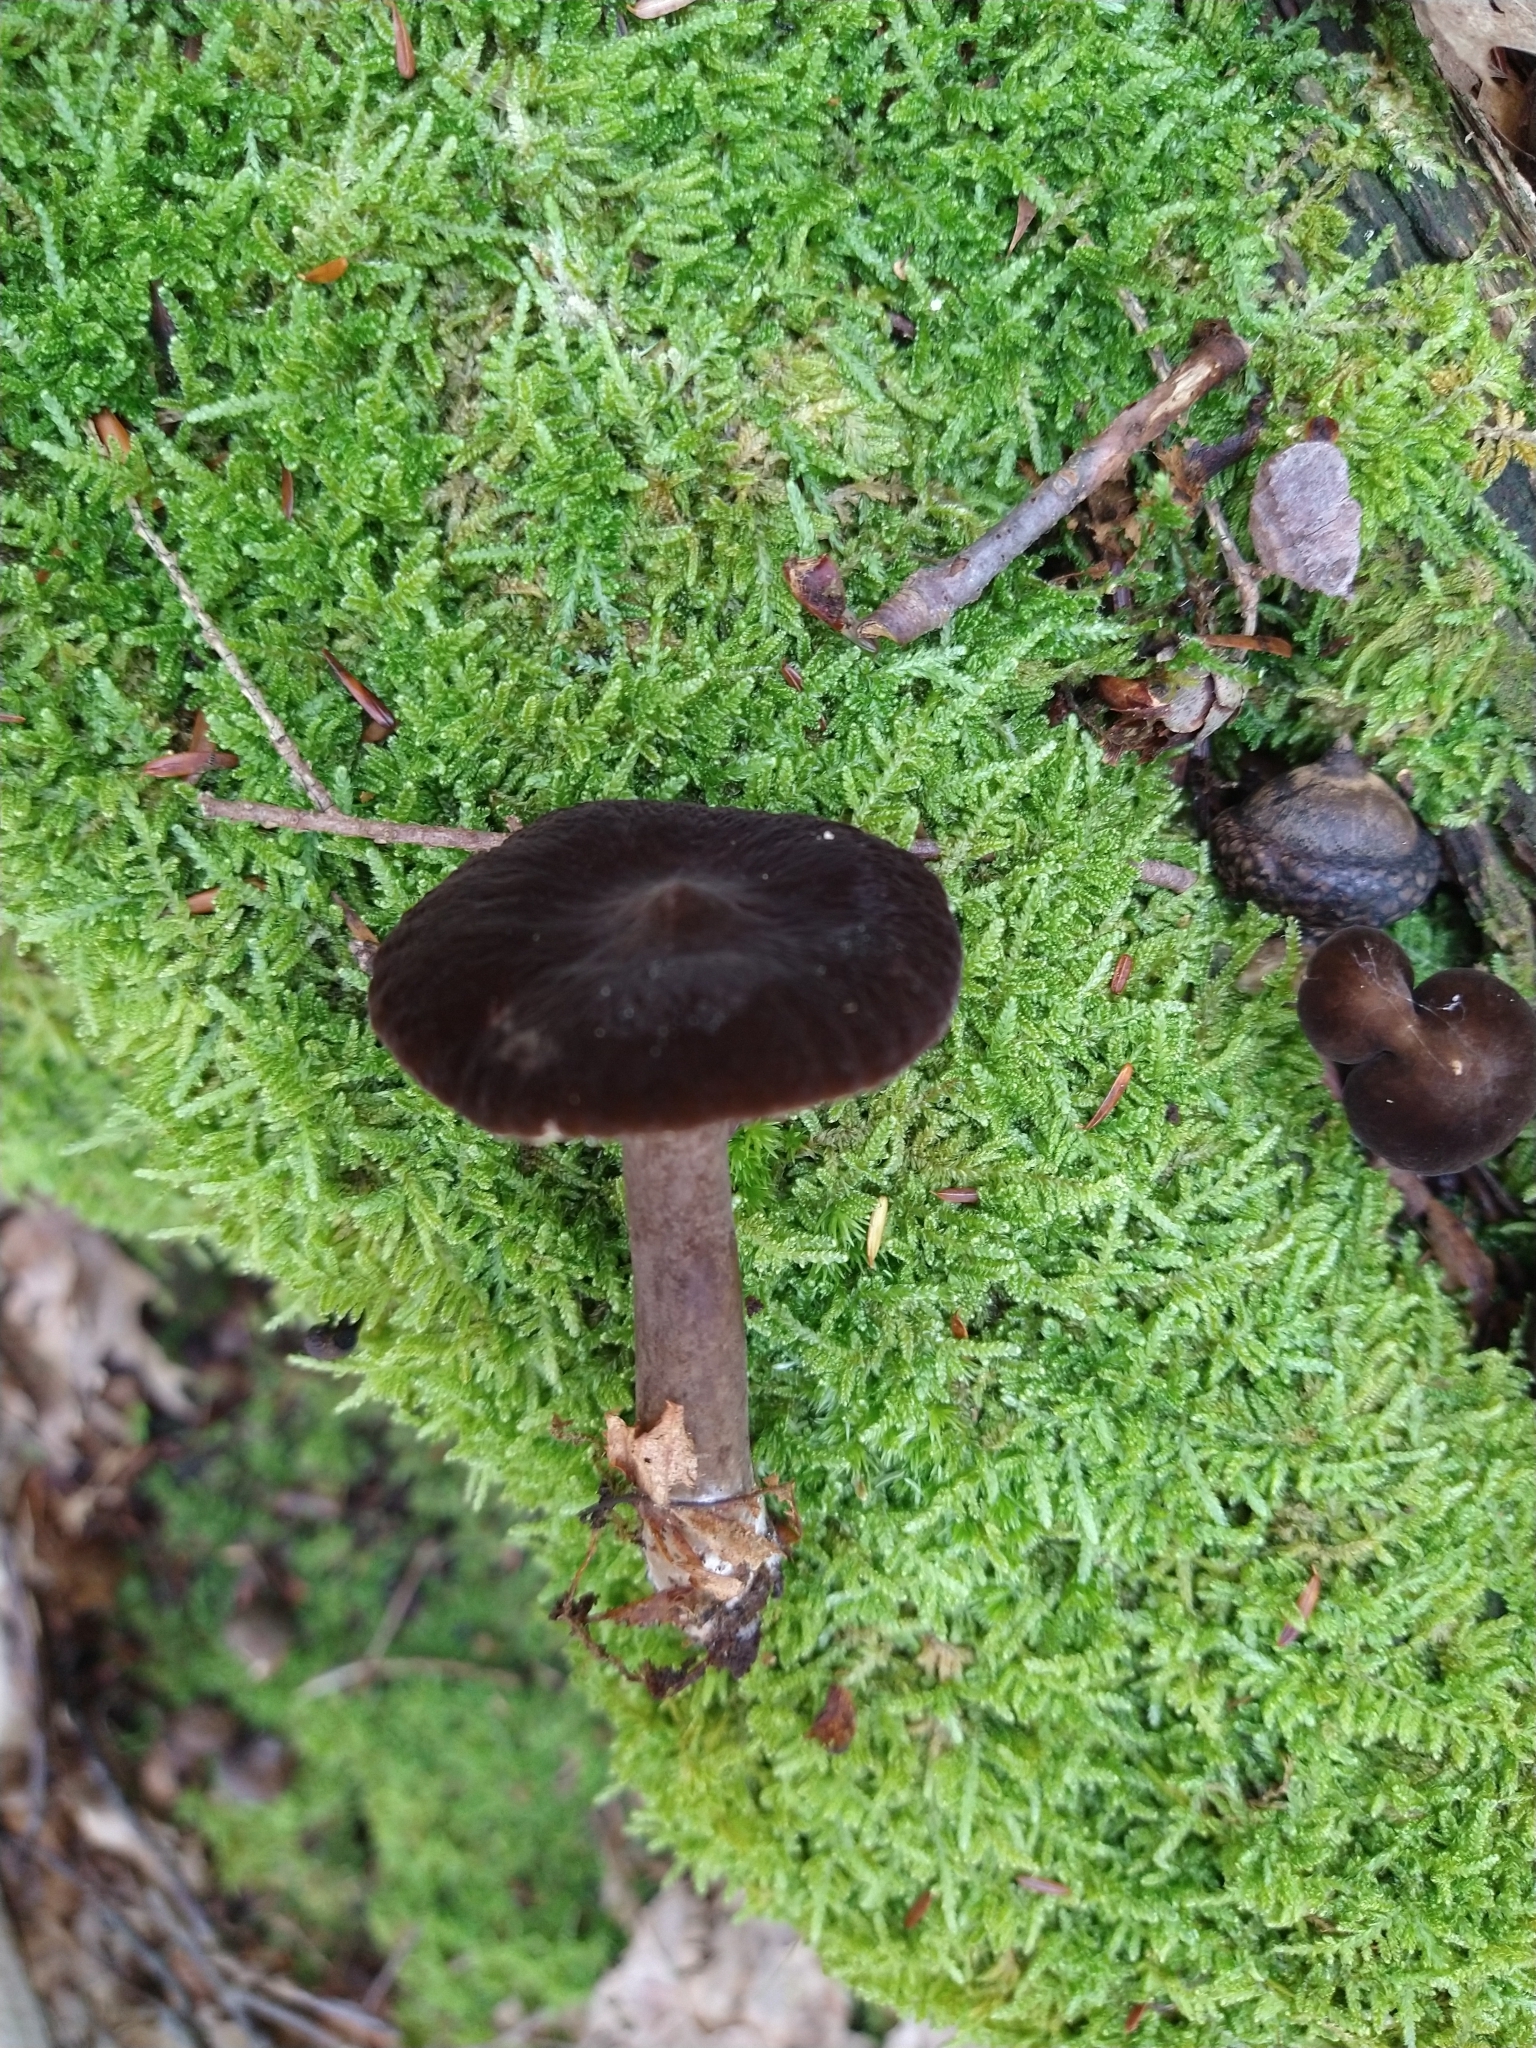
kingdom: Fungi
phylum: Basidiomycota
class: Agaricomycetes
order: Russulales
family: Russulaceae
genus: Lactarius
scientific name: Lactarius lignyotus
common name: Velvet milkcap
